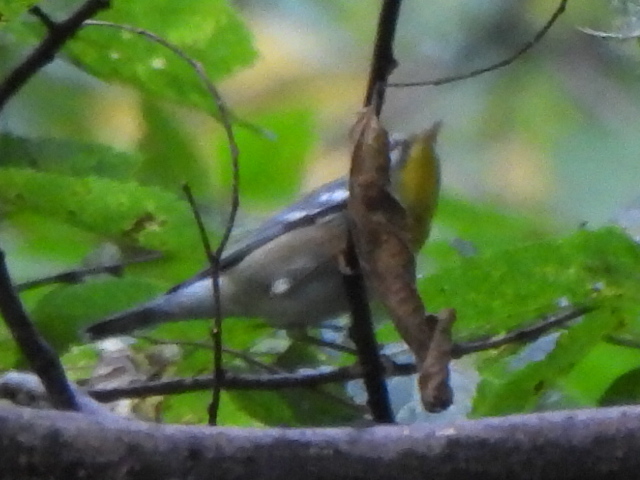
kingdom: Animalia
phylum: Chordata
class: Aves
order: Passeriformes
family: Parulidae
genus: Setophaga
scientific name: Setophaga americana
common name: Northern parula
